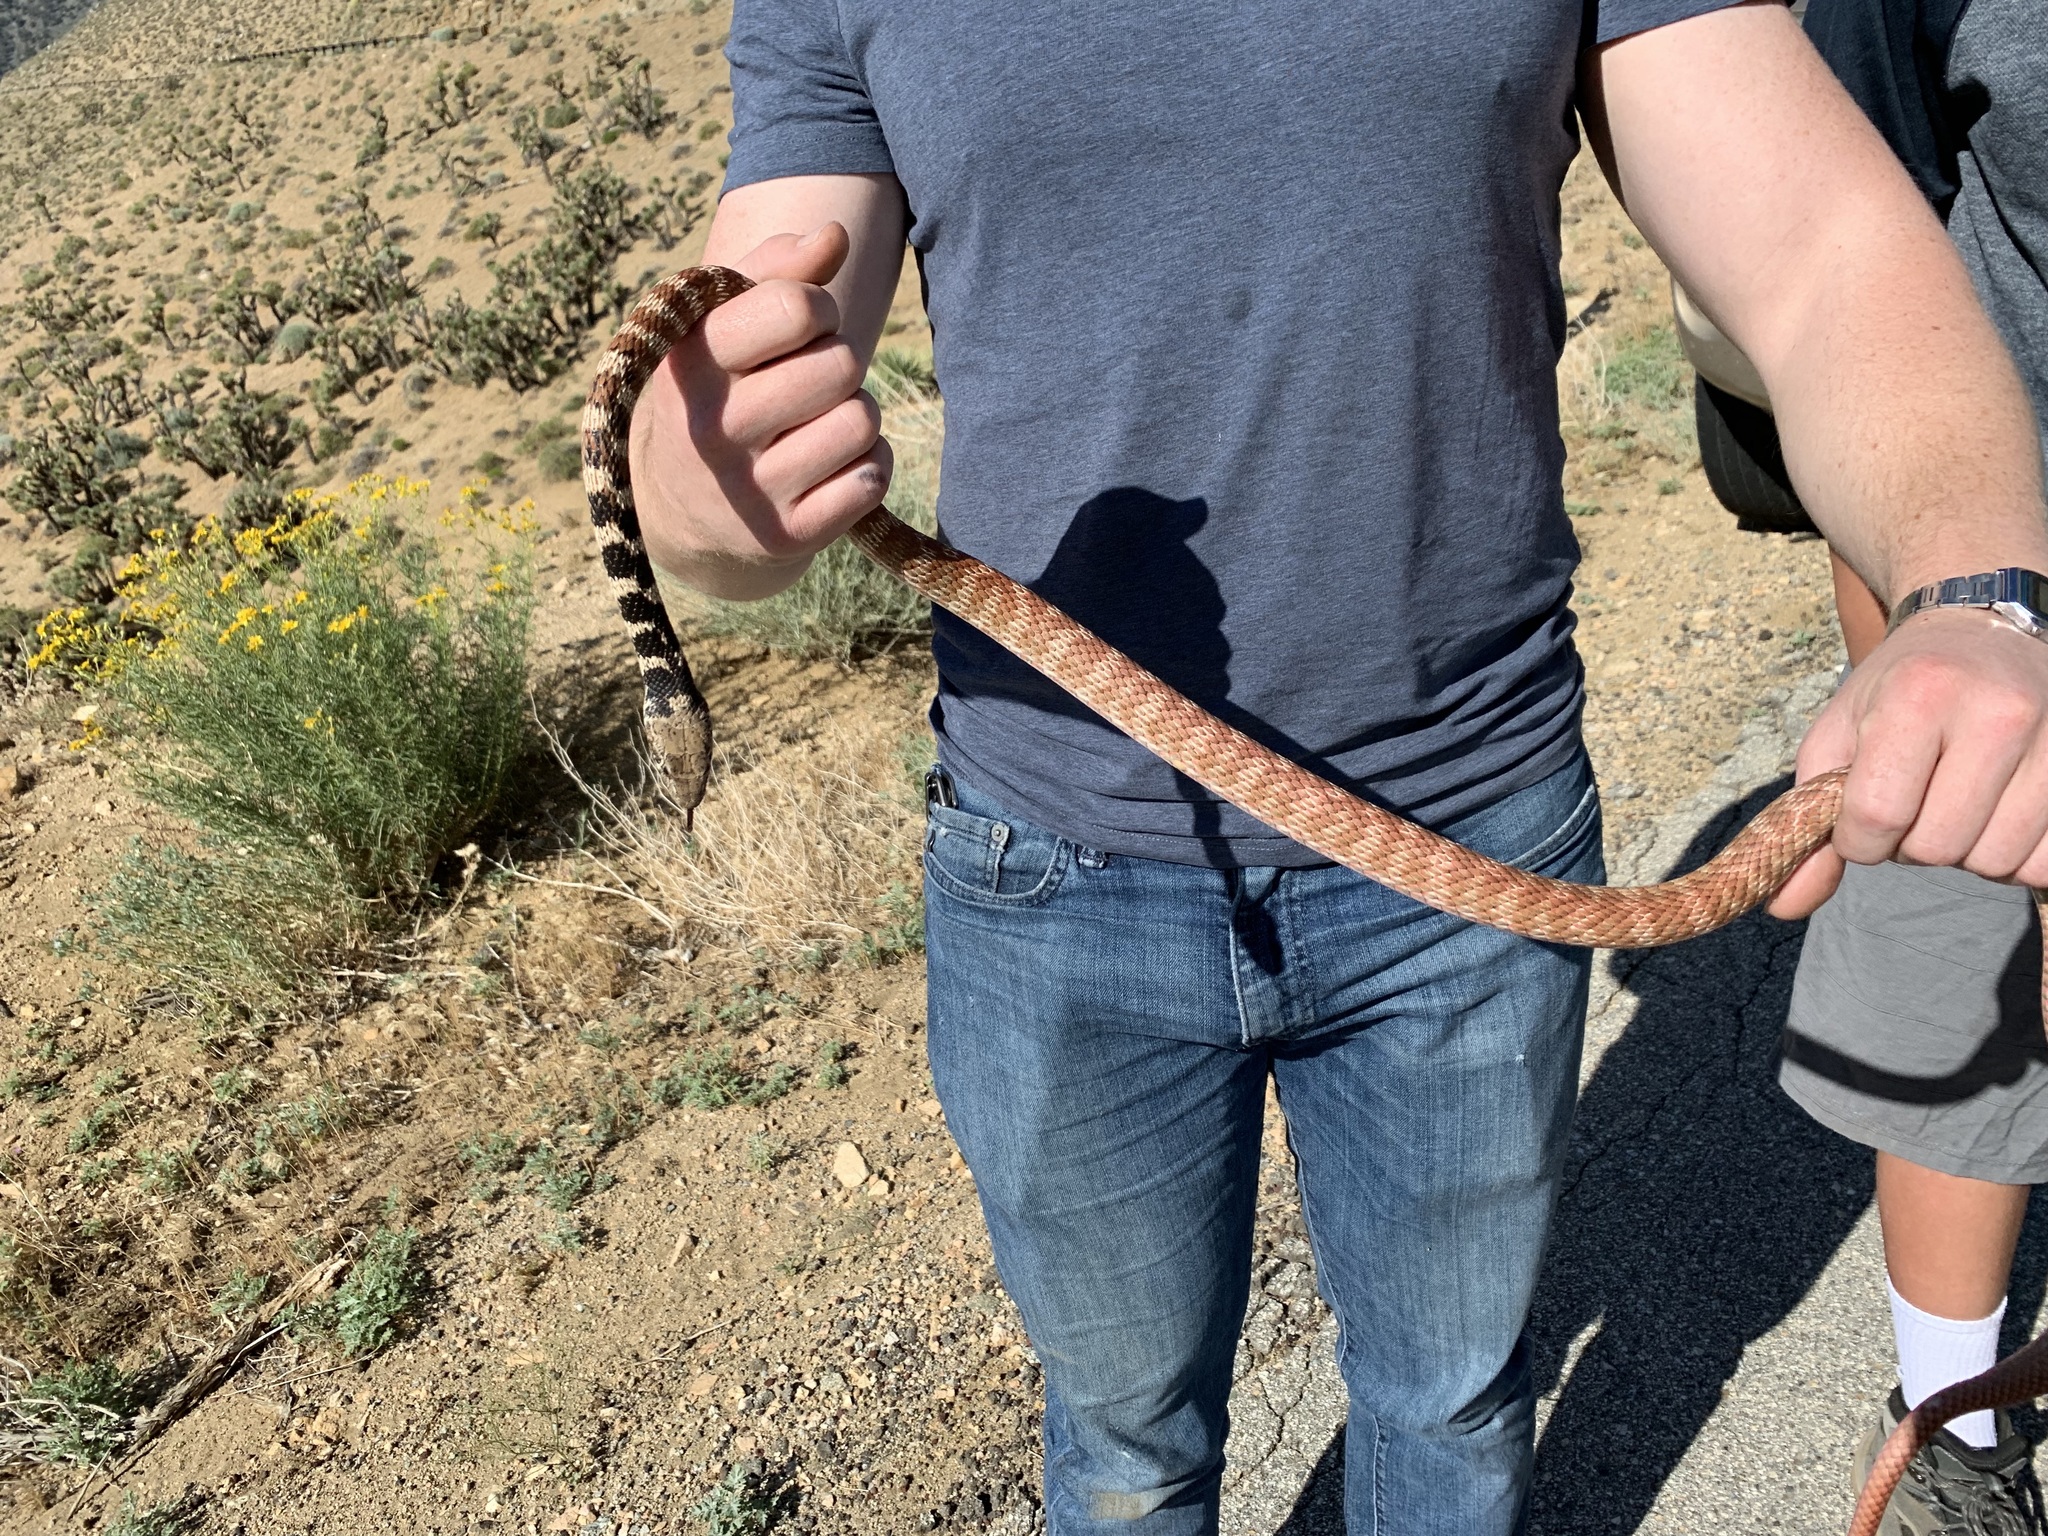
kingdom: Animalia
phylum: Chordata
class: Squamata
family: Colubridae
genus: Masticophis
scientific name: Masticophis flagellum
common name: Coachwhip
